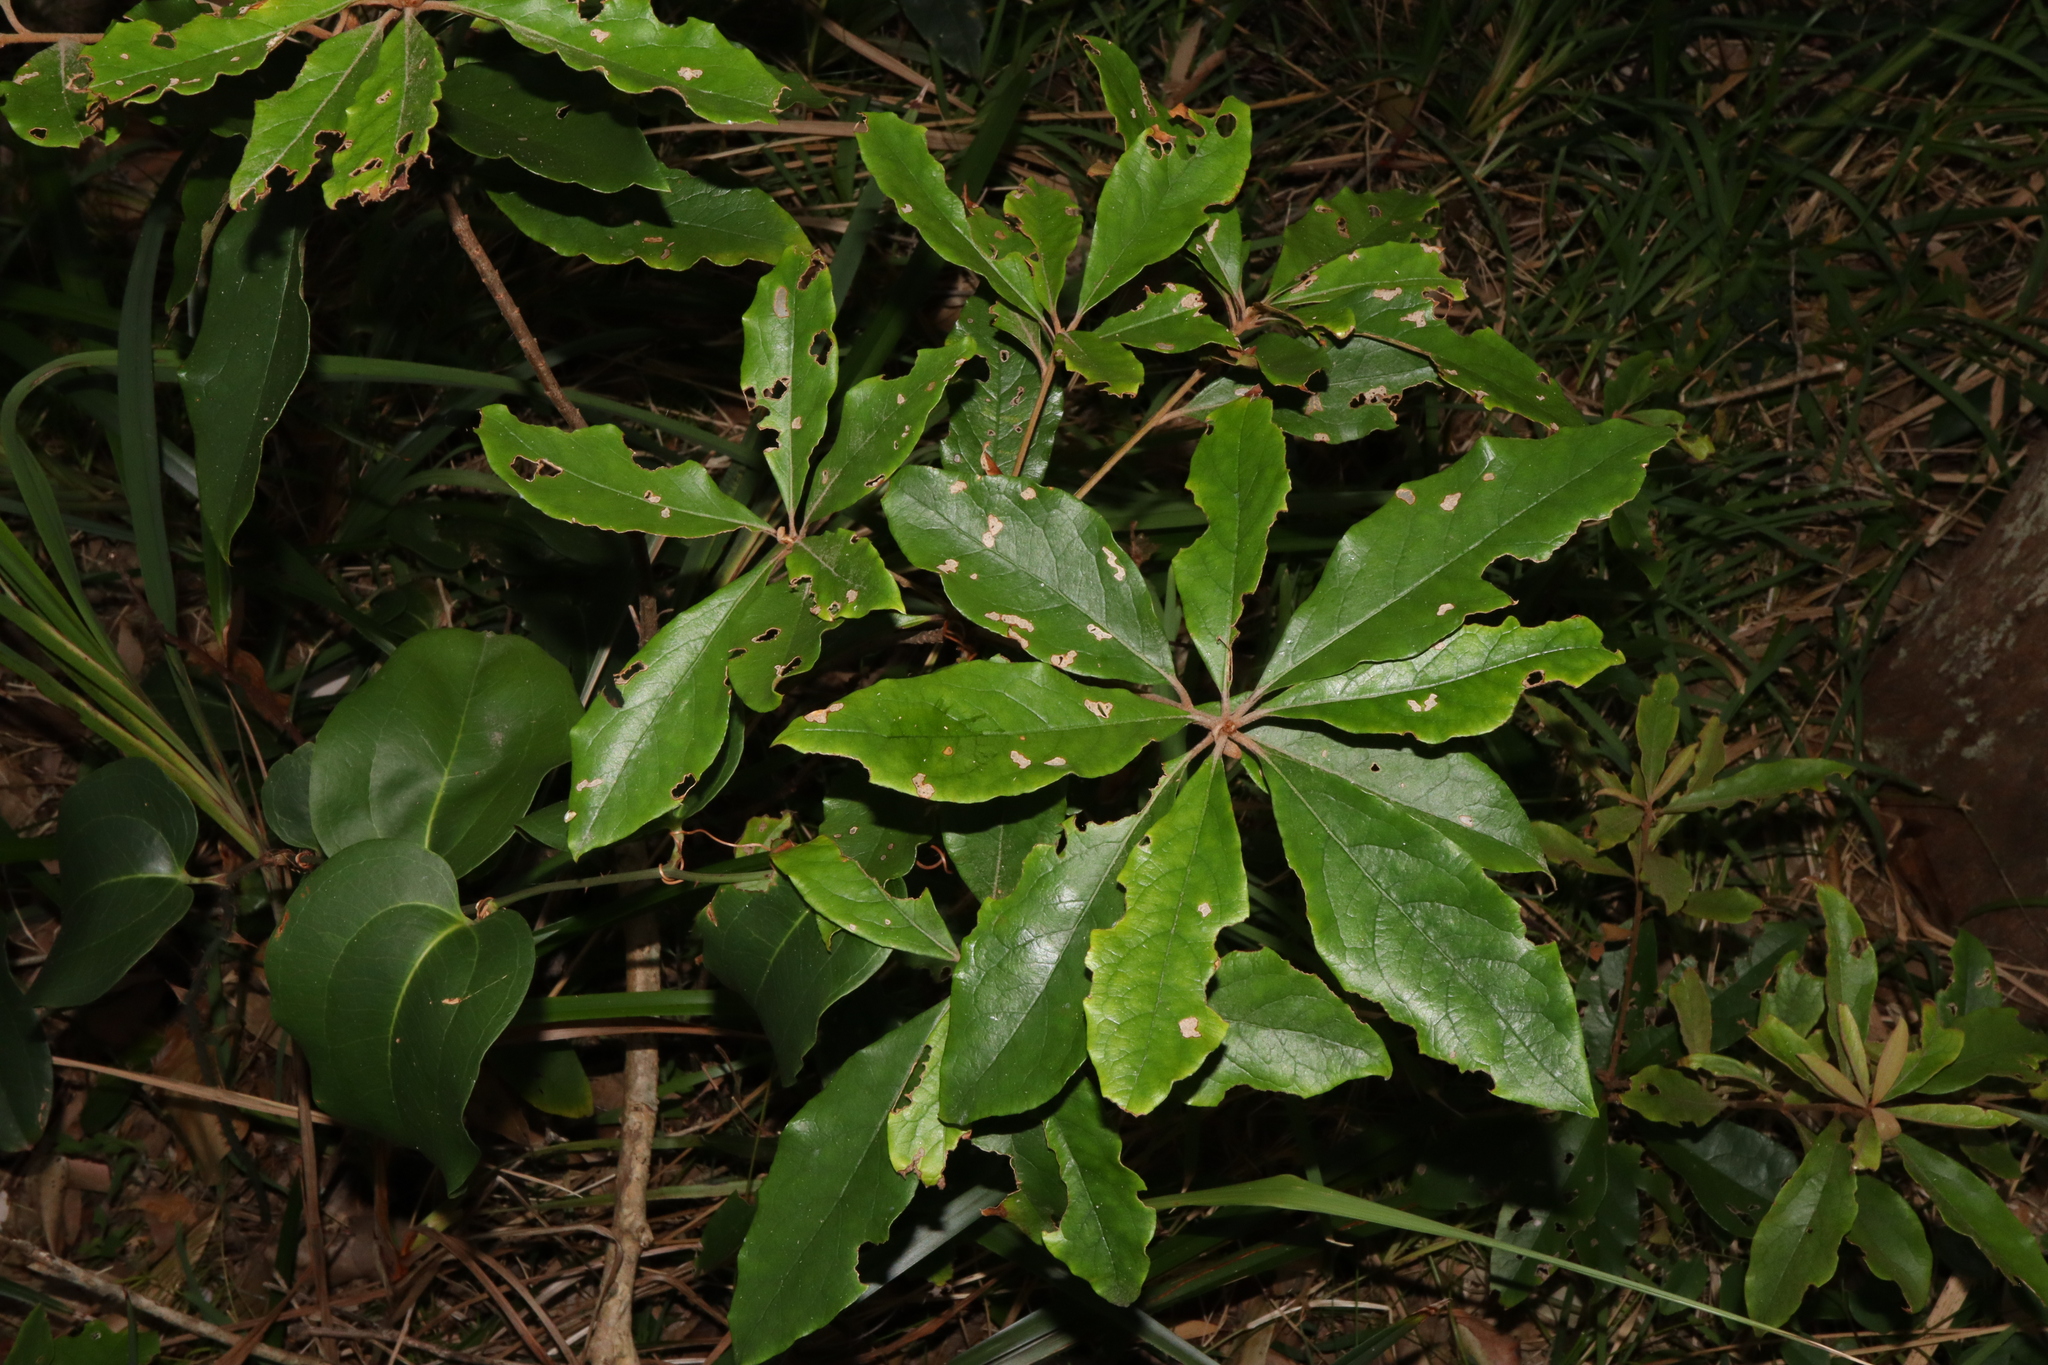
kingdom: Plantae
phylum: Tracheophyta
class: Magnoliopsida
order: Apiales
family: Pittosporaceae
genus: Pittosporum
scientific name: Pittosporum revolutum
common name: Brisbane-laurel
